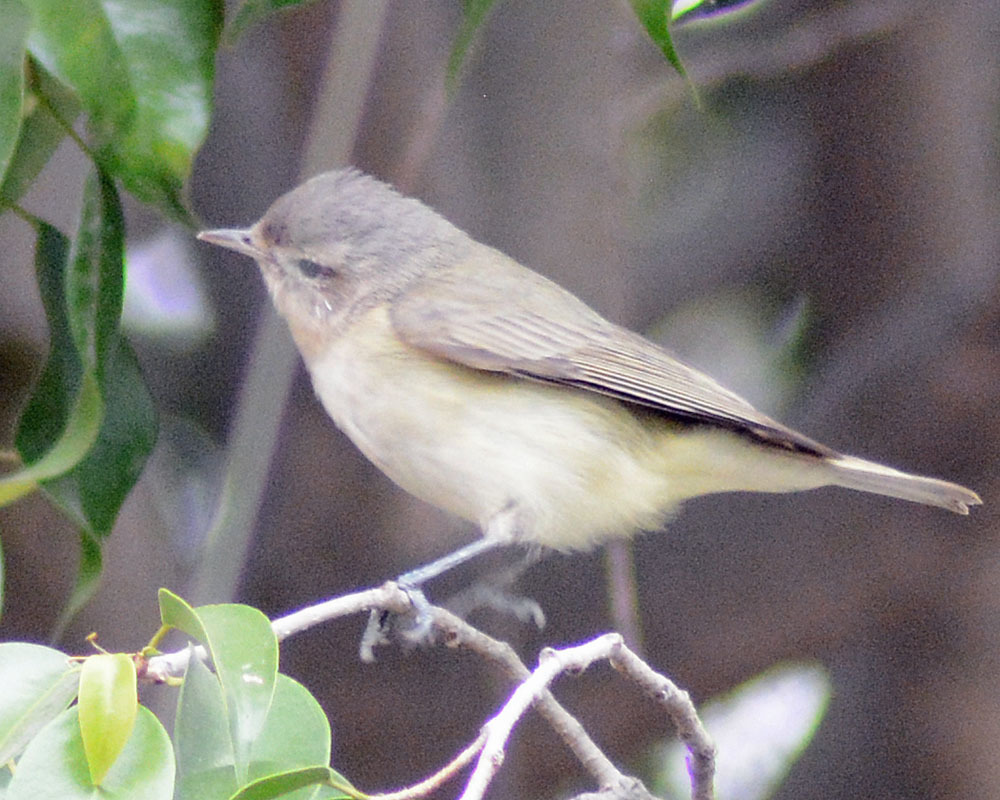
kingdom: Animalia
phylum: Chordata
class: Aves
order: Passeriformes
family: Vireonidae
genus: Vireo
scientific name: Vireo gilvus
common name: Warbling vireo
